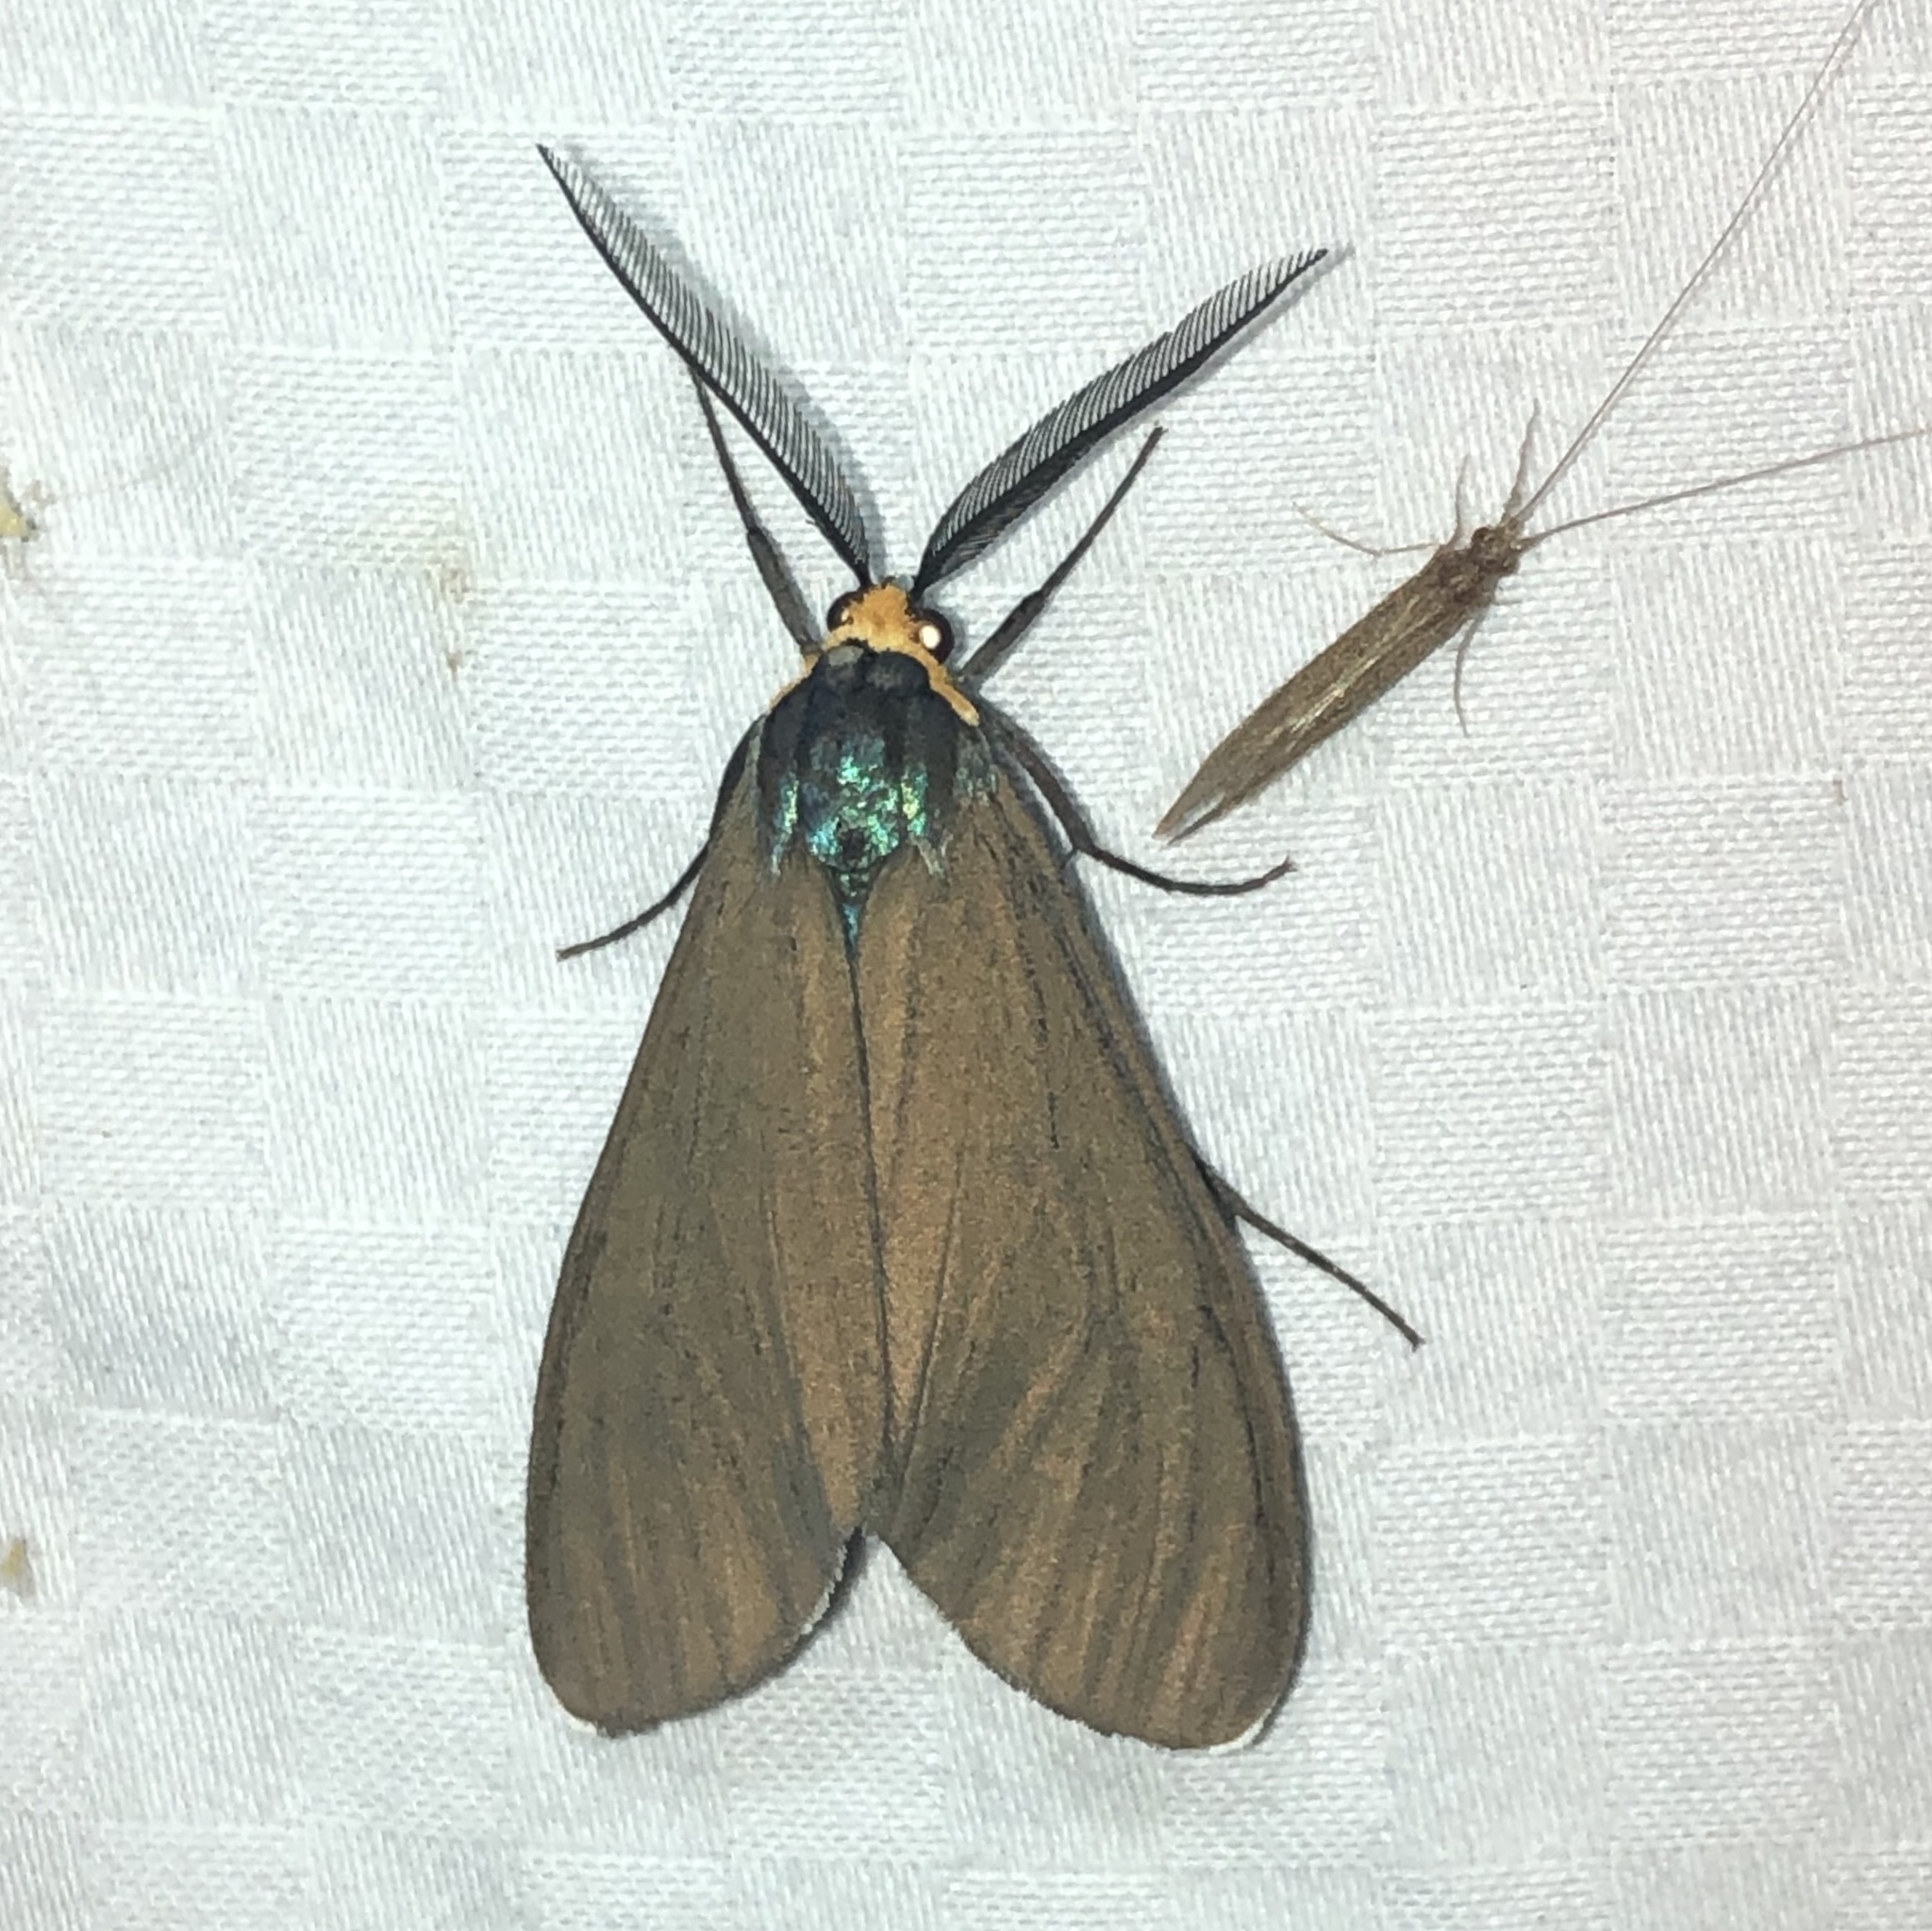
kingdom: Animalia
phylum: Arthropoda
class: Insecta
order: Lepidoptera
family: Erebidae
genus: Ctenucha
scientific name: Ctenucha virginica
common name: Virginia ctenucha moth
